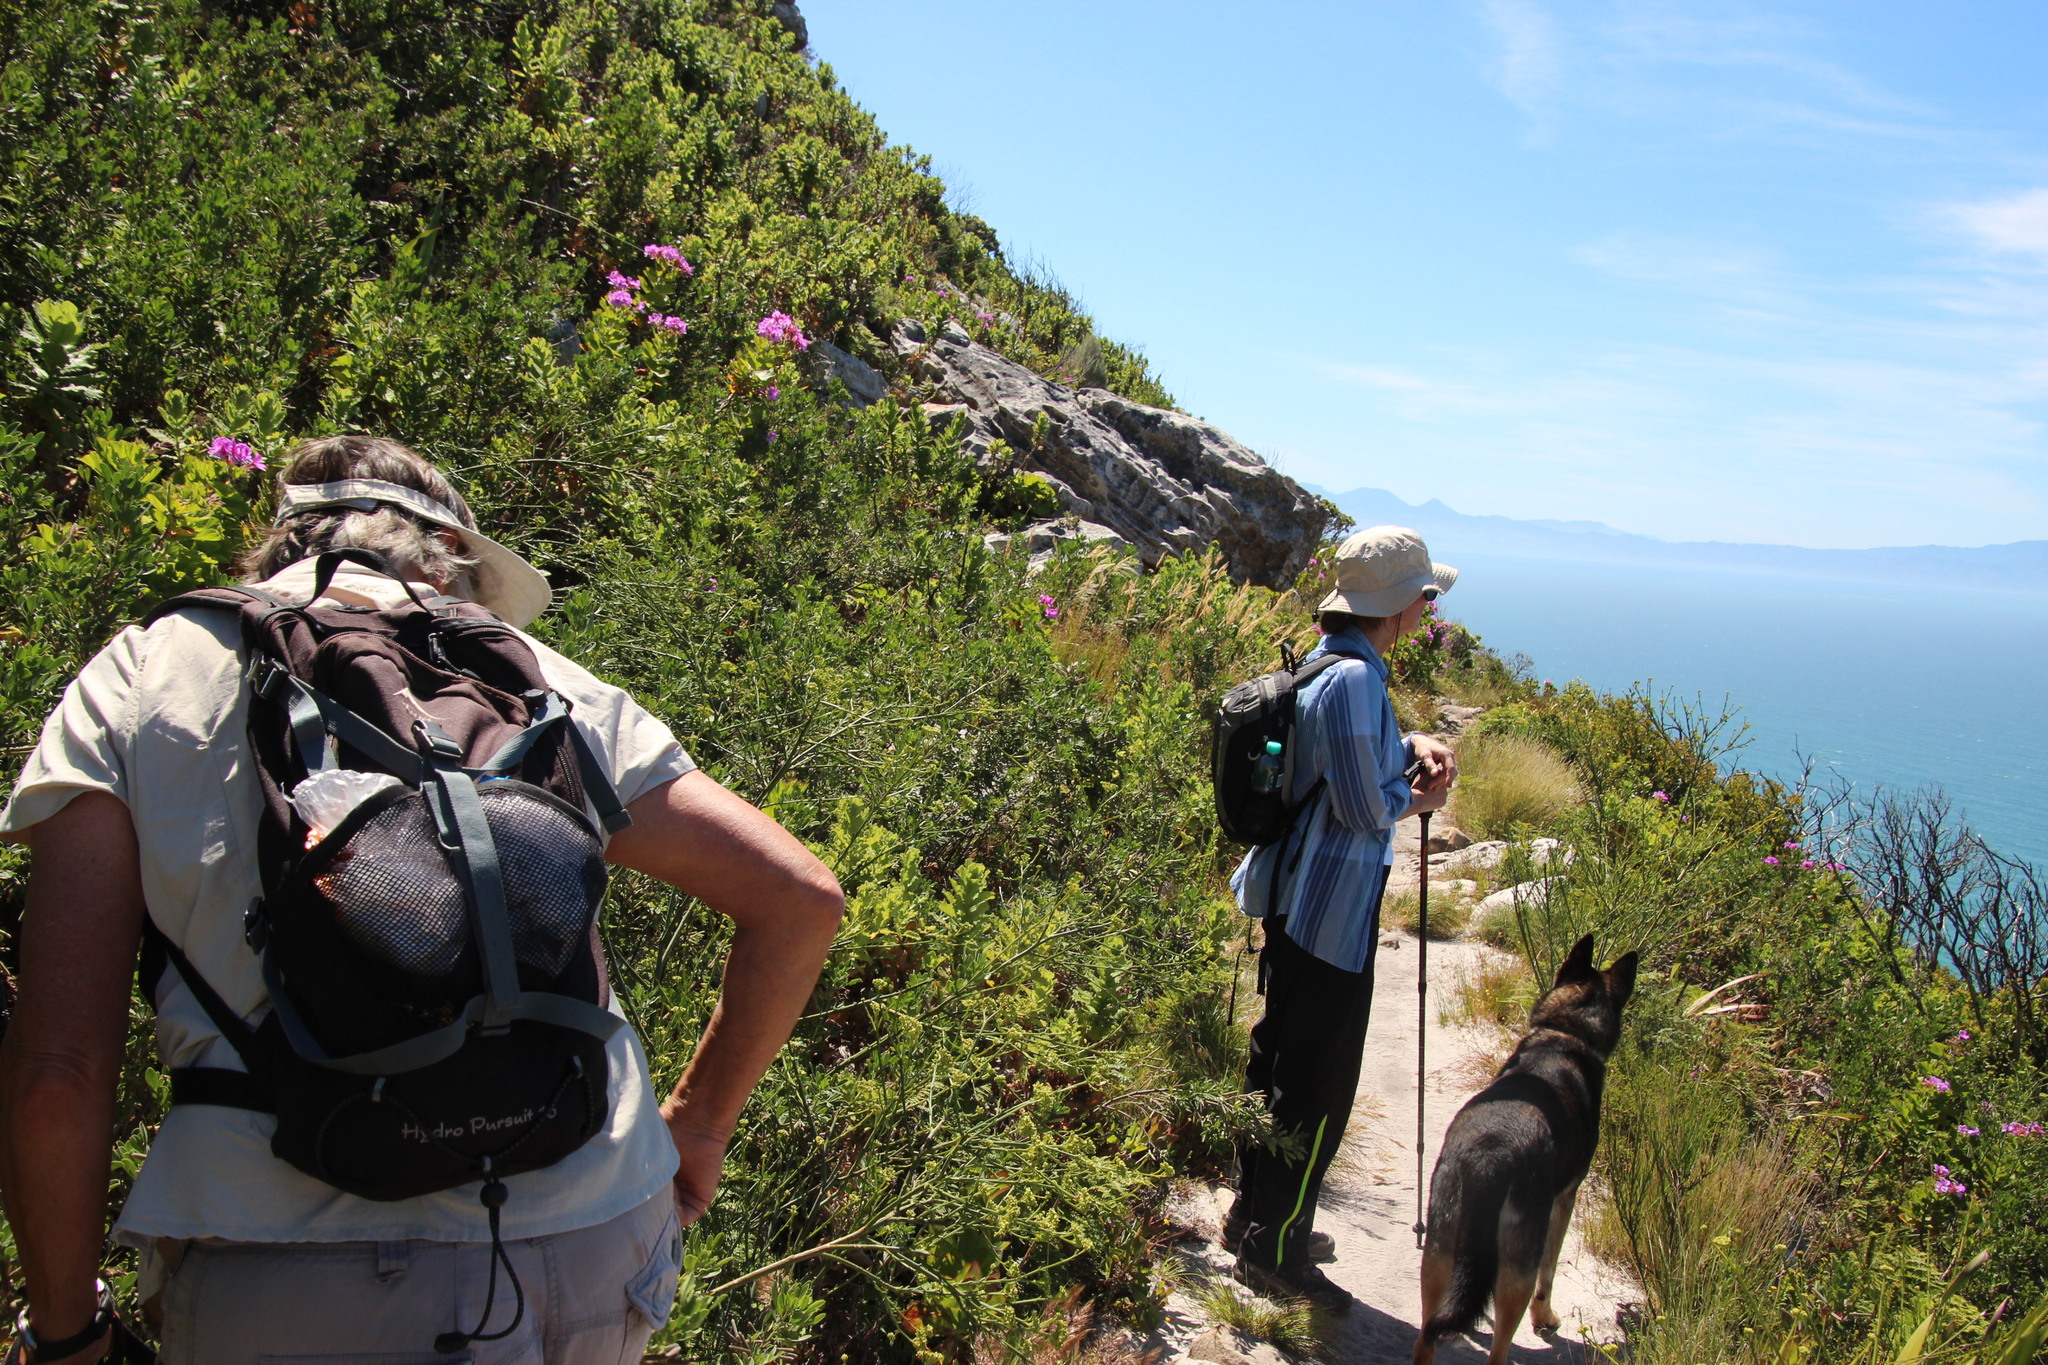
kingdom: Plantae
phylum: Tracheophyta
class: Magnoliopsida
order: Fabales
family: Fabaceae
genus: Indigofera
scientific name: Indigofera cytisoides
